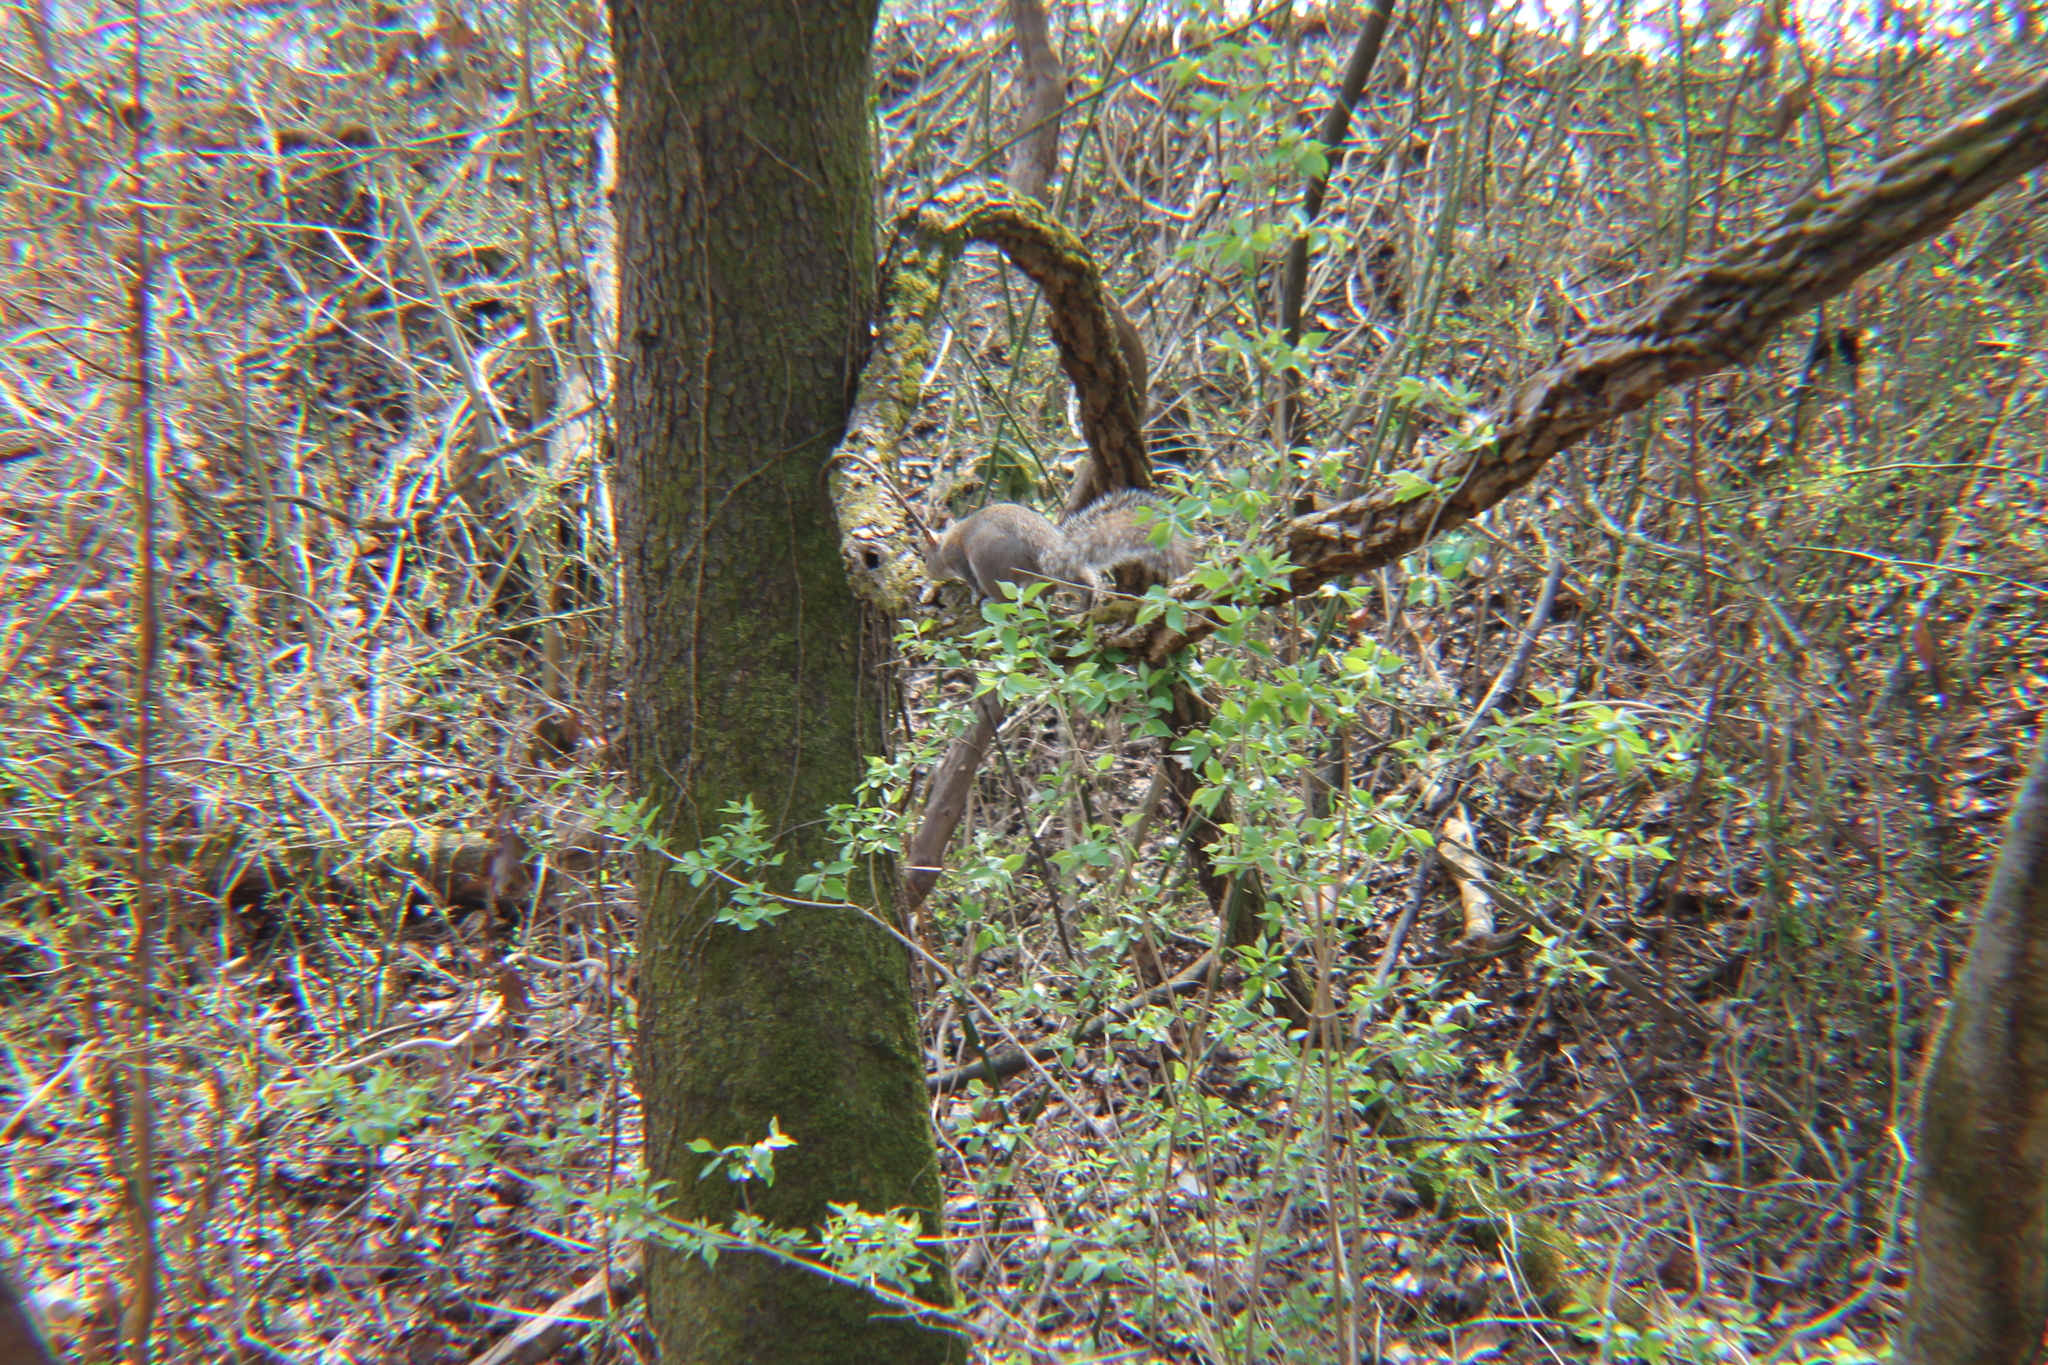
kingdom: Animalia
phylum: Chordata
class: Mammalia
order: Rodentia
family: Sciuridae
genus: Sciurus
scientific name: Sciurus carolinensis
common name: Eastern gray squirrel
